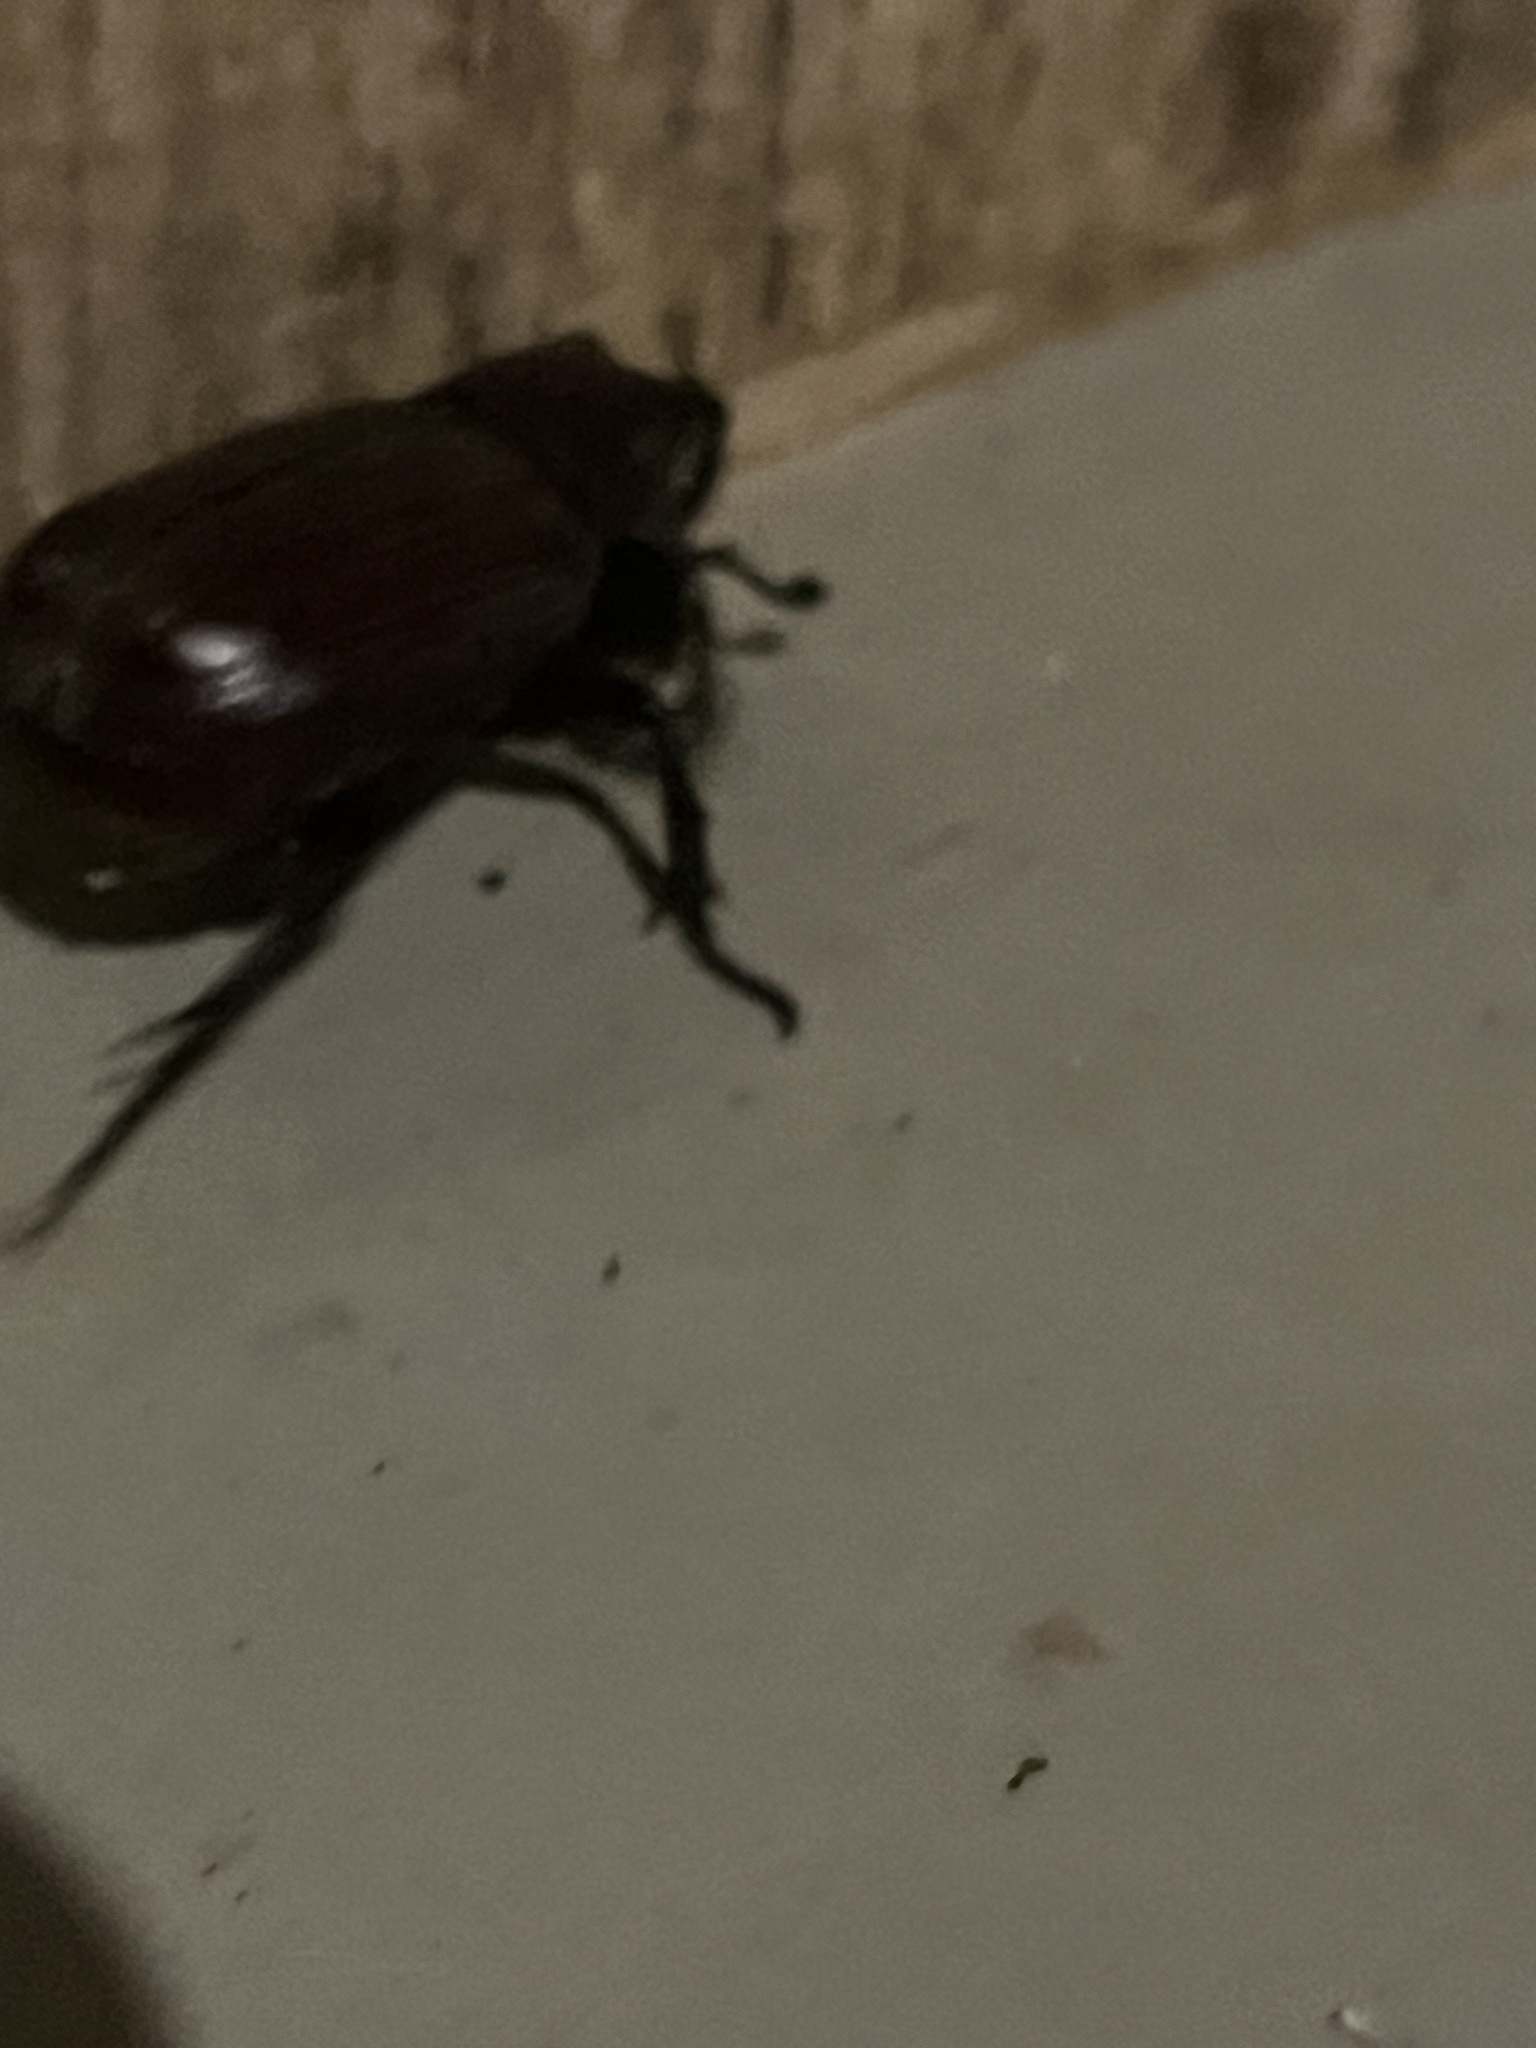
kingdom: Animalia
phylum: Arthropoda
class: Insecta
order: Coleoptera
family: Scarabaeidae
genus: Coelosis
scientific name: Coelosis biloba
